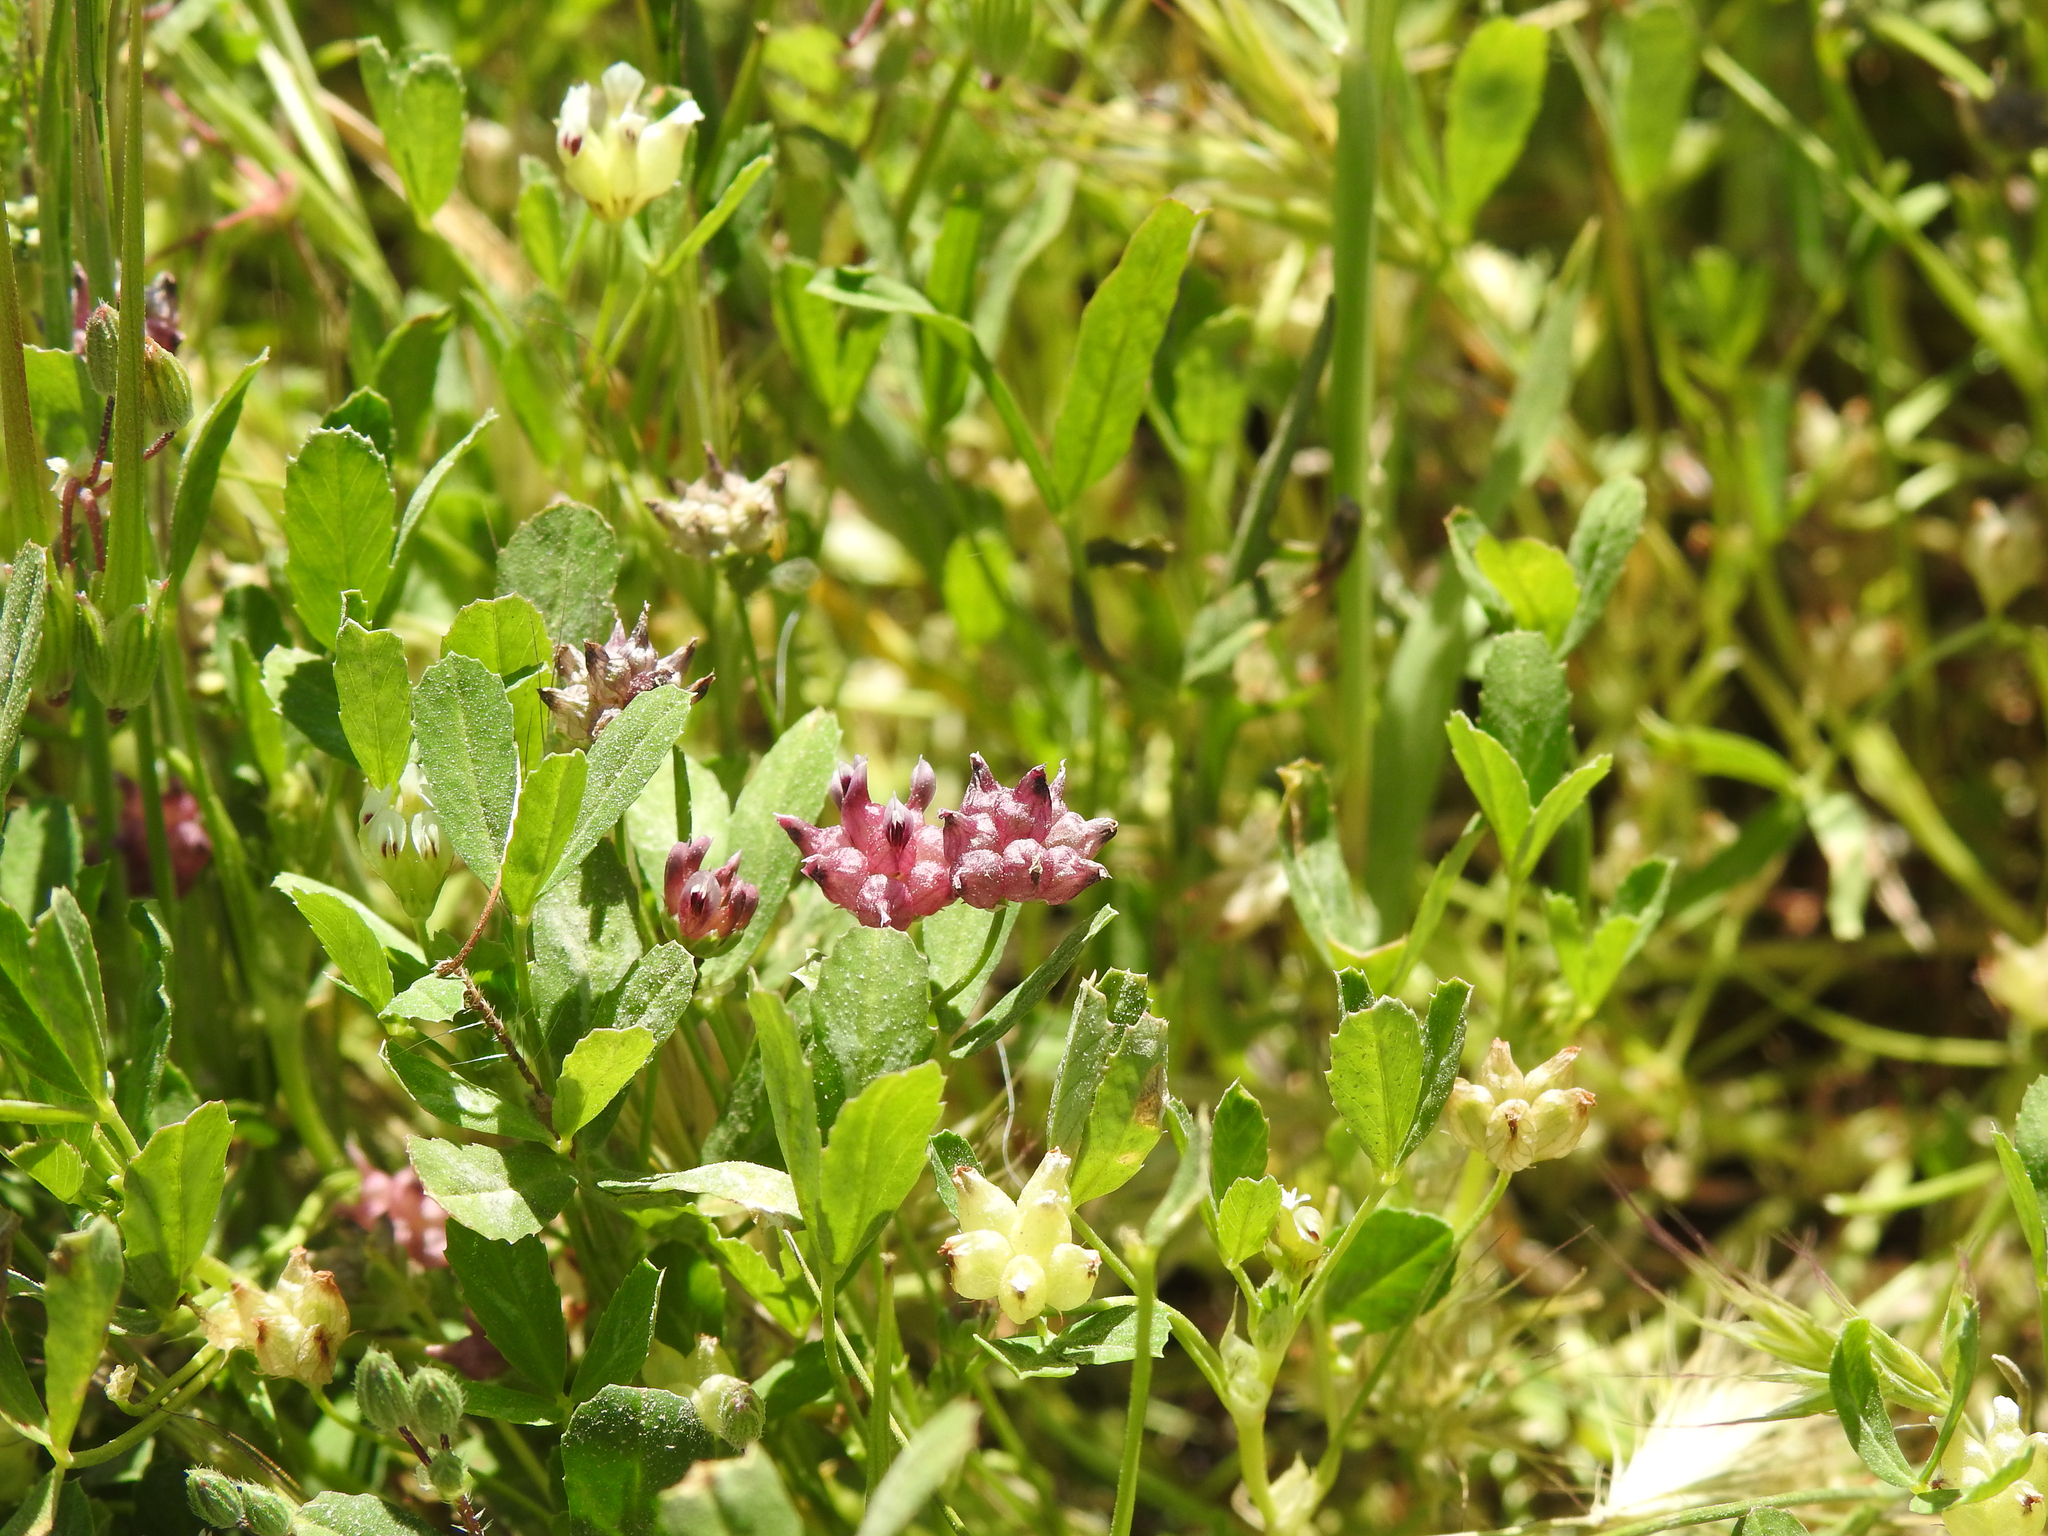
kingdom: Plantae
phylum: Tracheophyta
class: Magnoliopsida
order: Fabales
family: Fabaceae
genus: Trifolium
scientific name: Trifolium depauperatum
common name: Poverty clover
